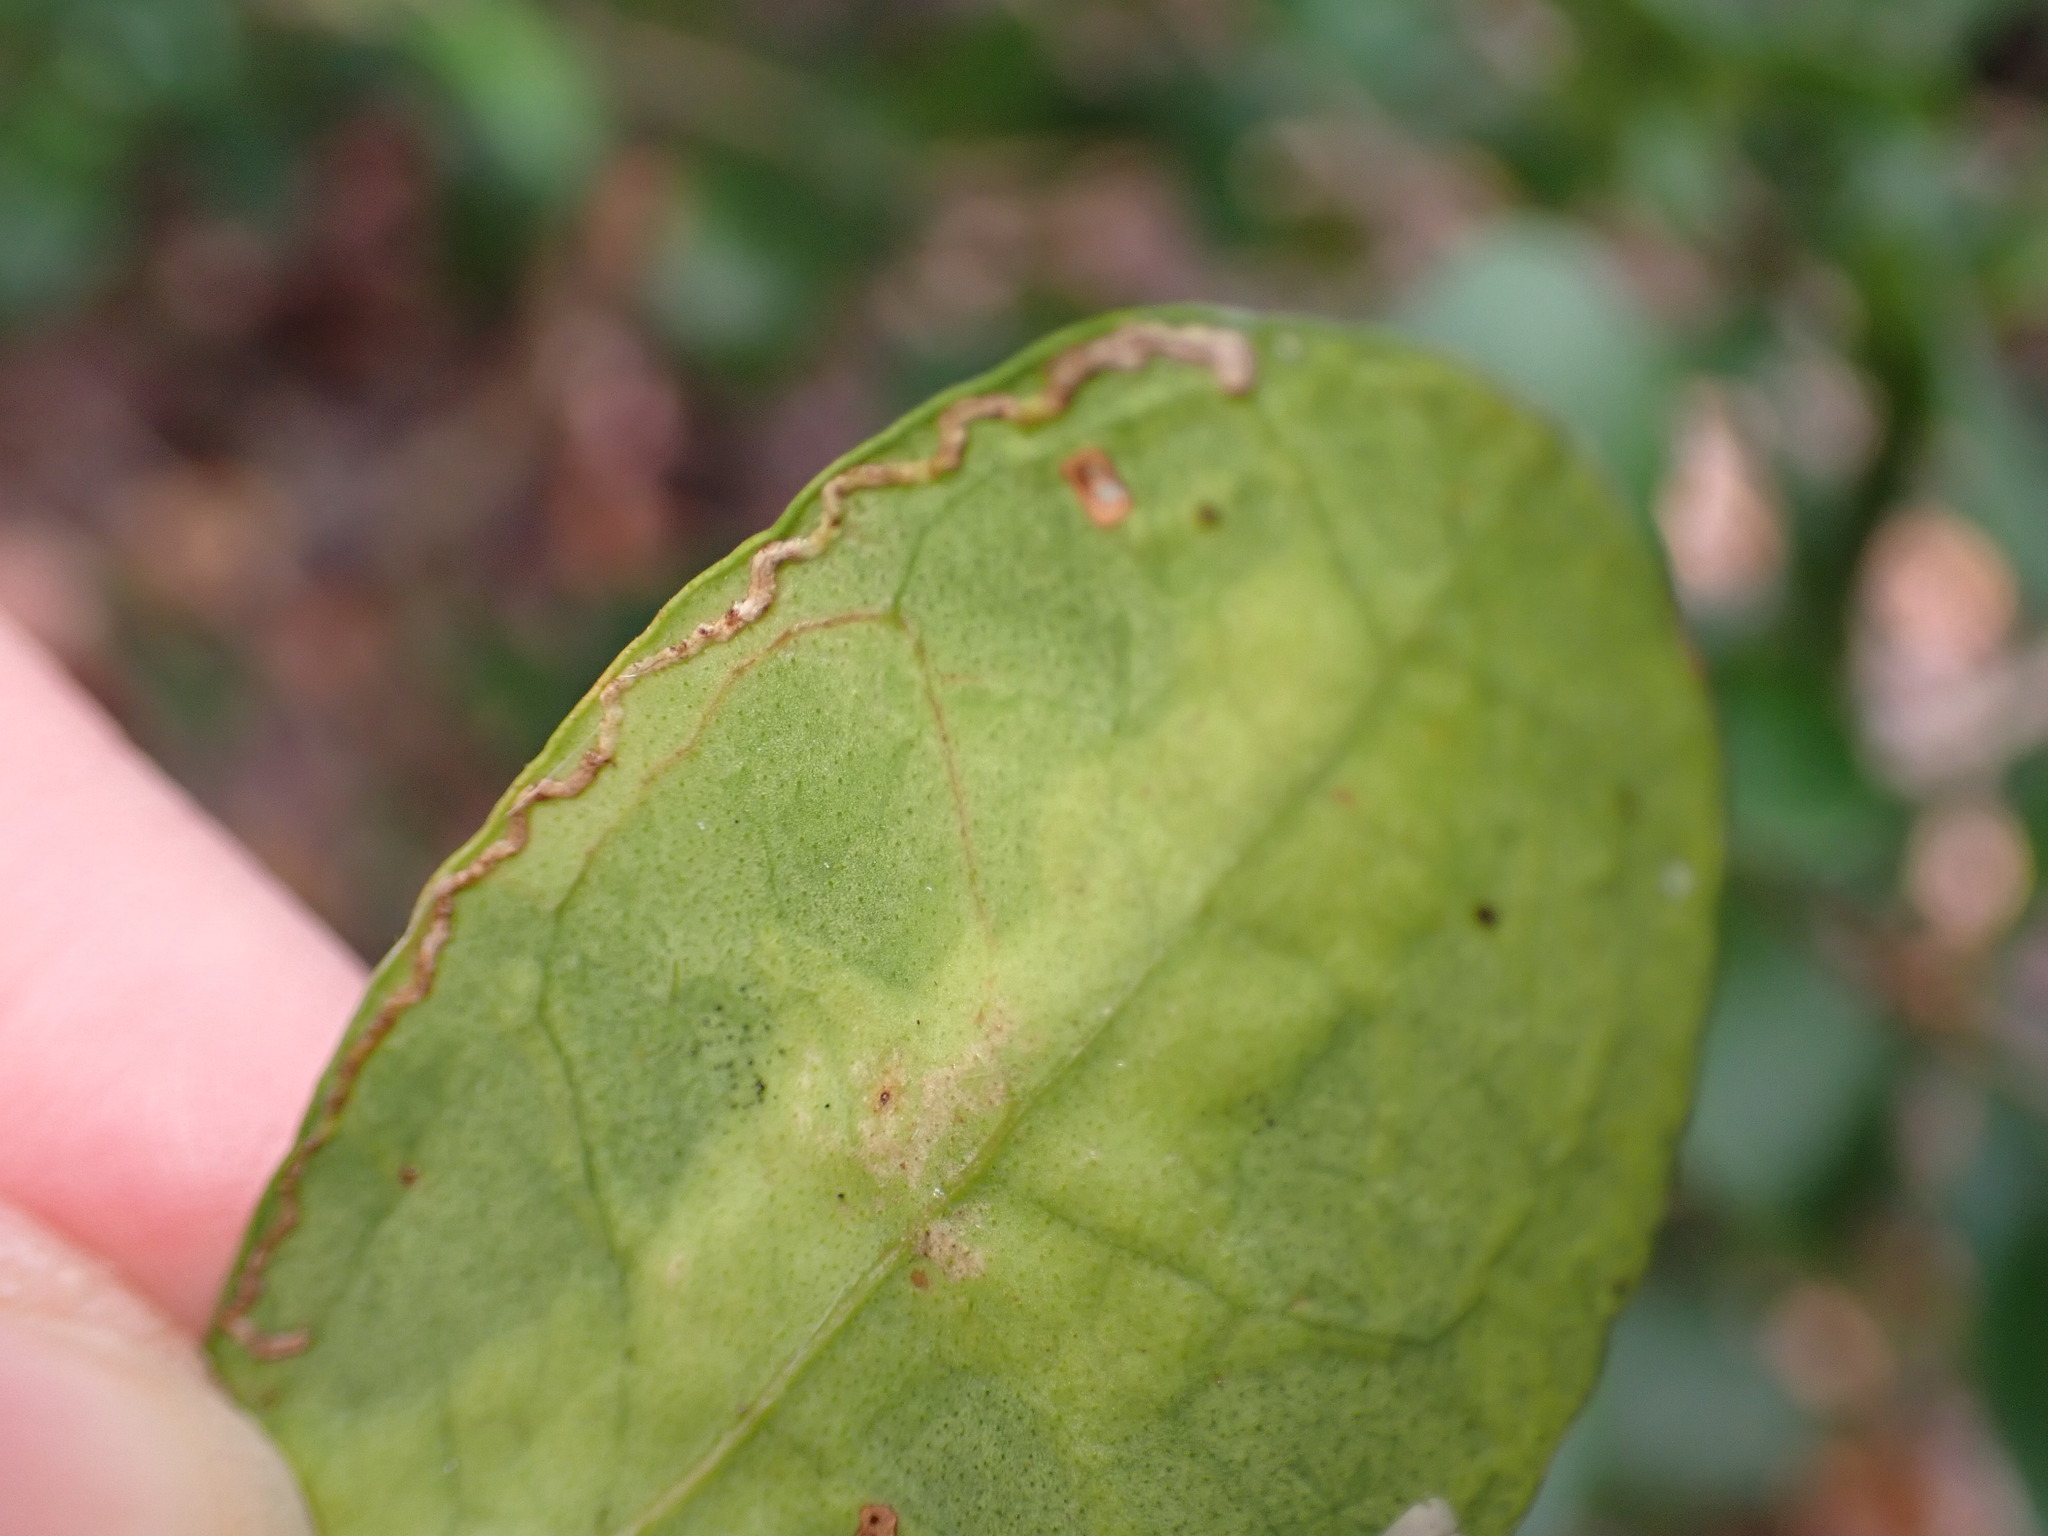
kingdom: Animalia
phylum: Arthropoda
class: Insecta
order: Lepidoptera
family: Gracillariidae
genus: Chilocampyla
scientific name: Chilocampyla dyariella
